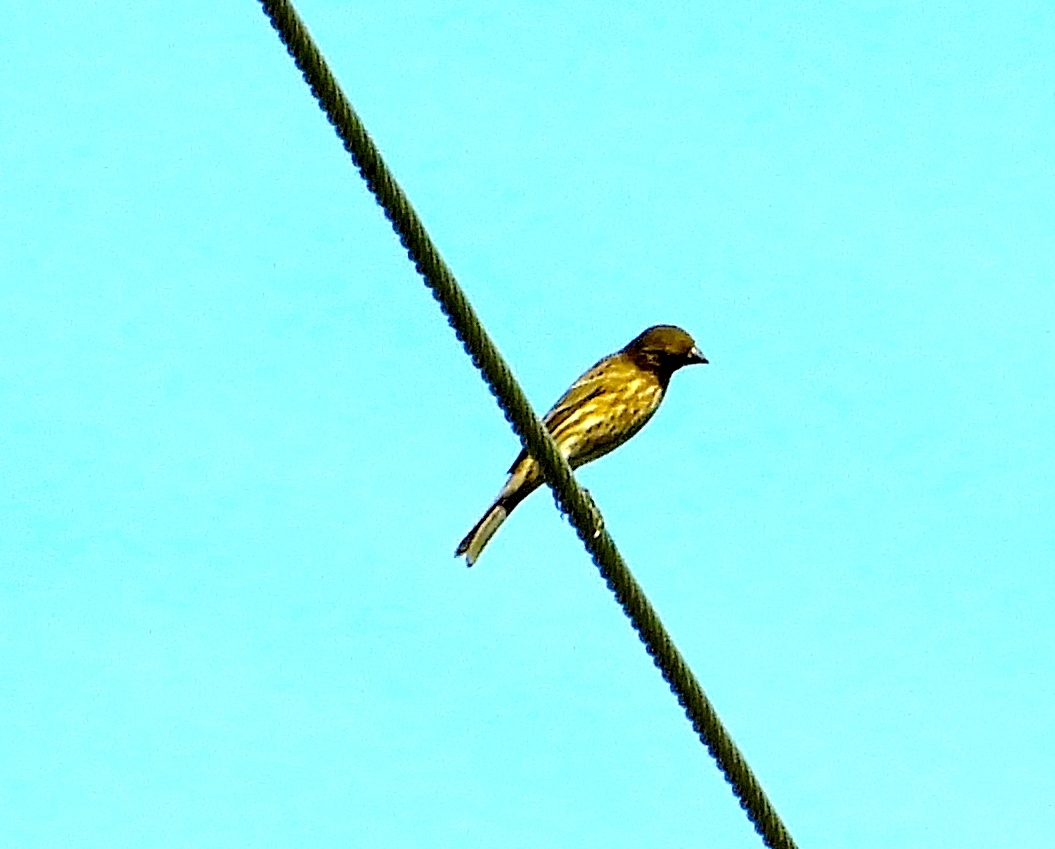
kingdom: Animalia
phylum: Chordata
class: Aves
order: Passeriformes
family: Fringillidae
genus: Haemorhous
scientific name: Haemorhous mexicanus
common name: House finch
